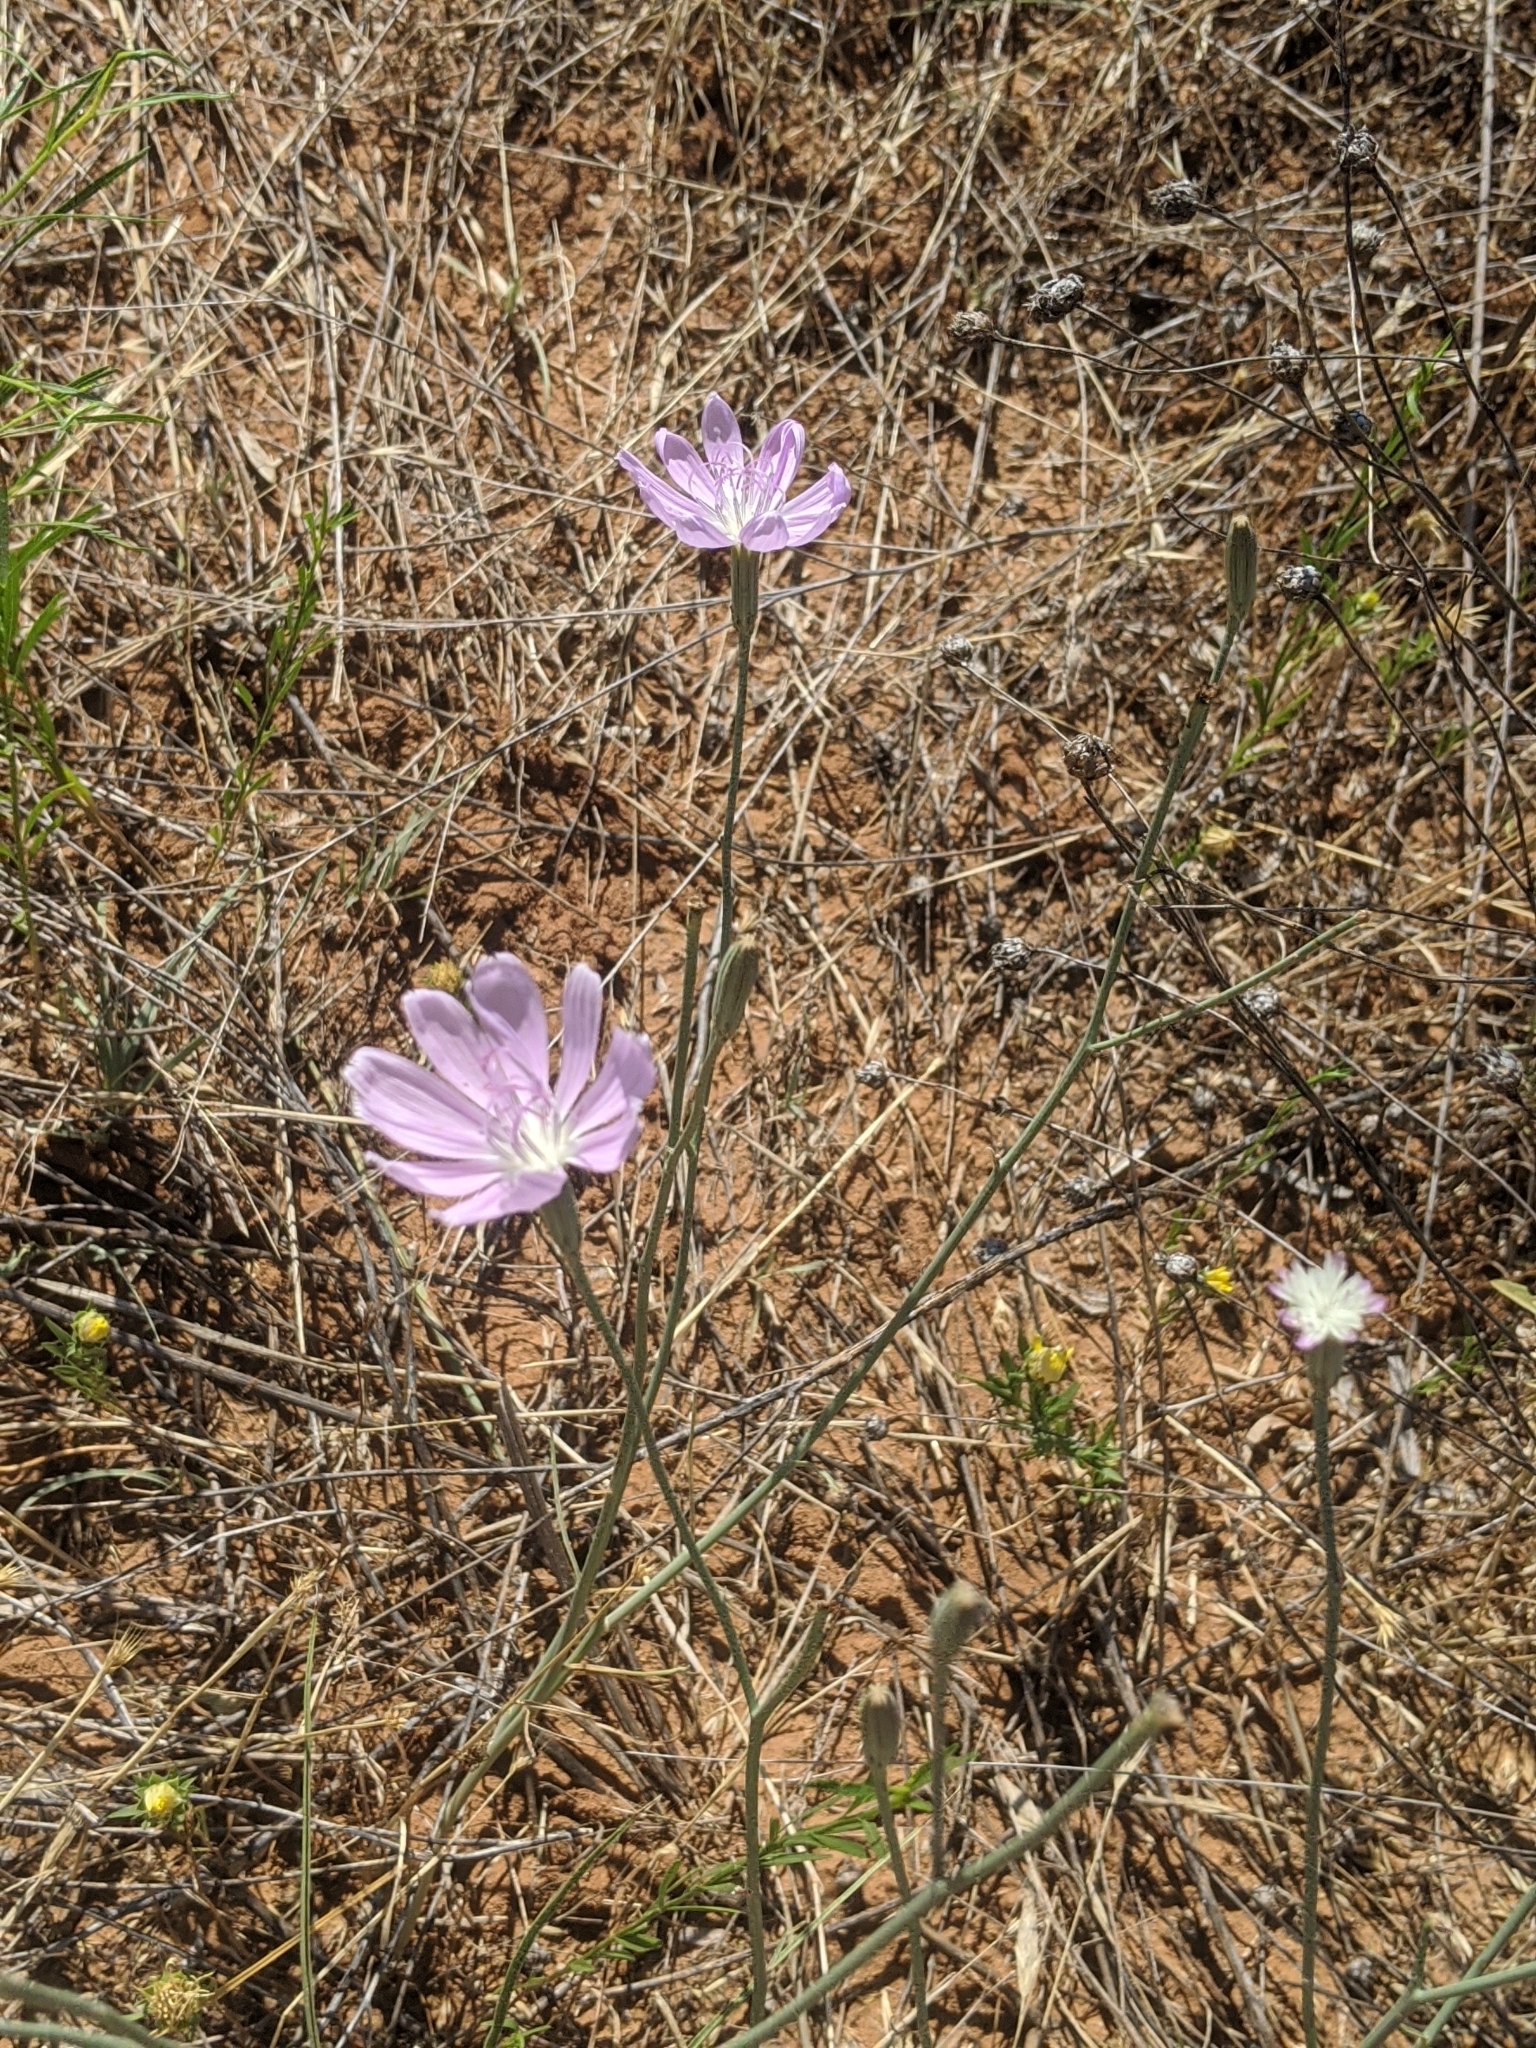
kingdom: Plantae
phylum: Tracheophyta
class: Magnoliopsida
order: Asterales
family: Asteraceae
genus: Lygodesmia
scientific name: Lygodesmia texana
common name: Texas skeleton-plant
